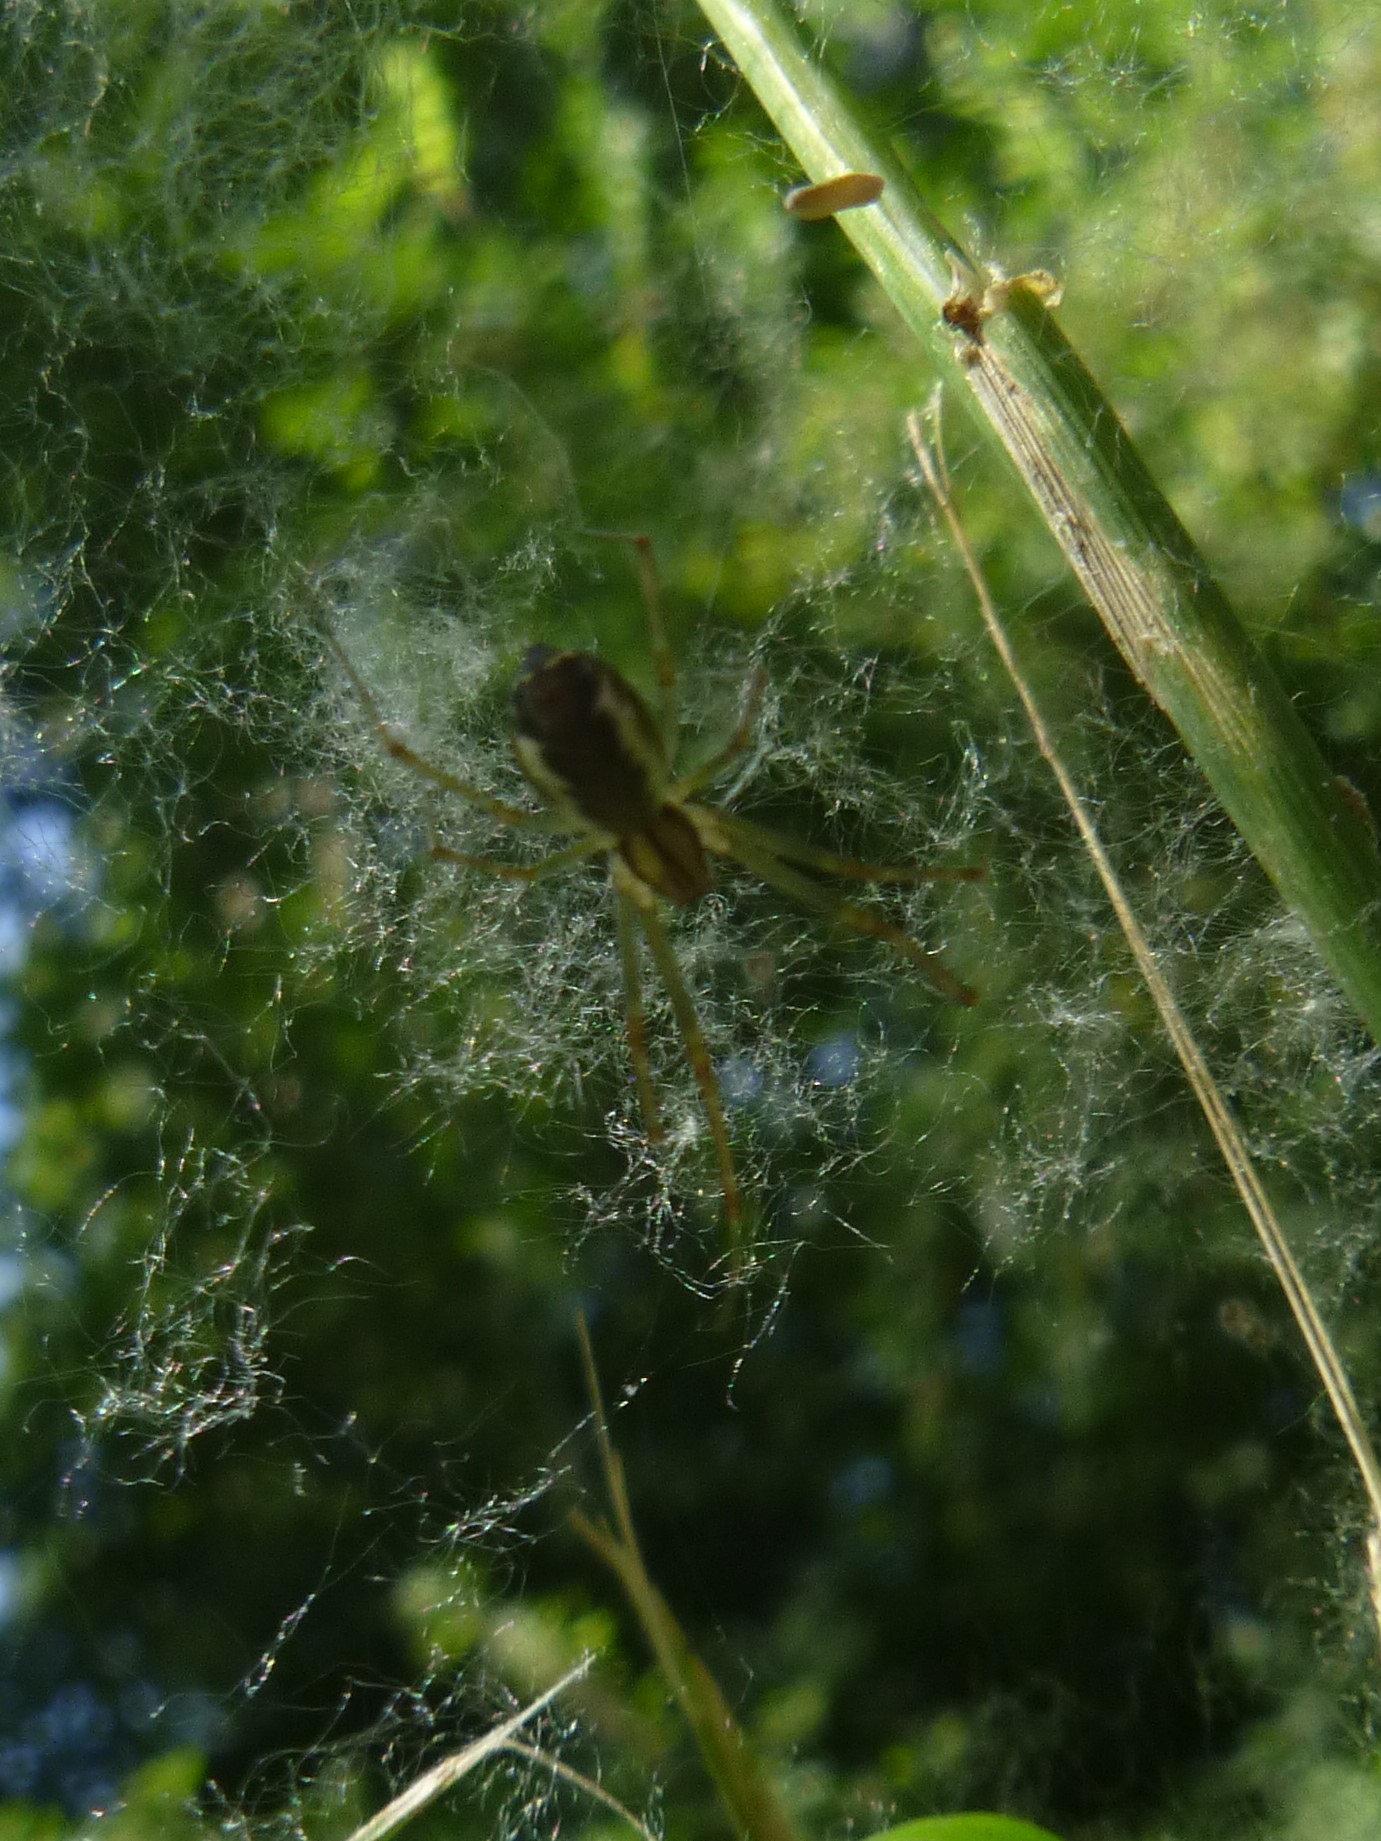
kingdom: Animalia
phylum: Arthropoda
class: Arachnida
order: Araneae
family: Linyphiidae
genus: Linyphia
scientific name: Linyphia triangularis
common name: Money spider
